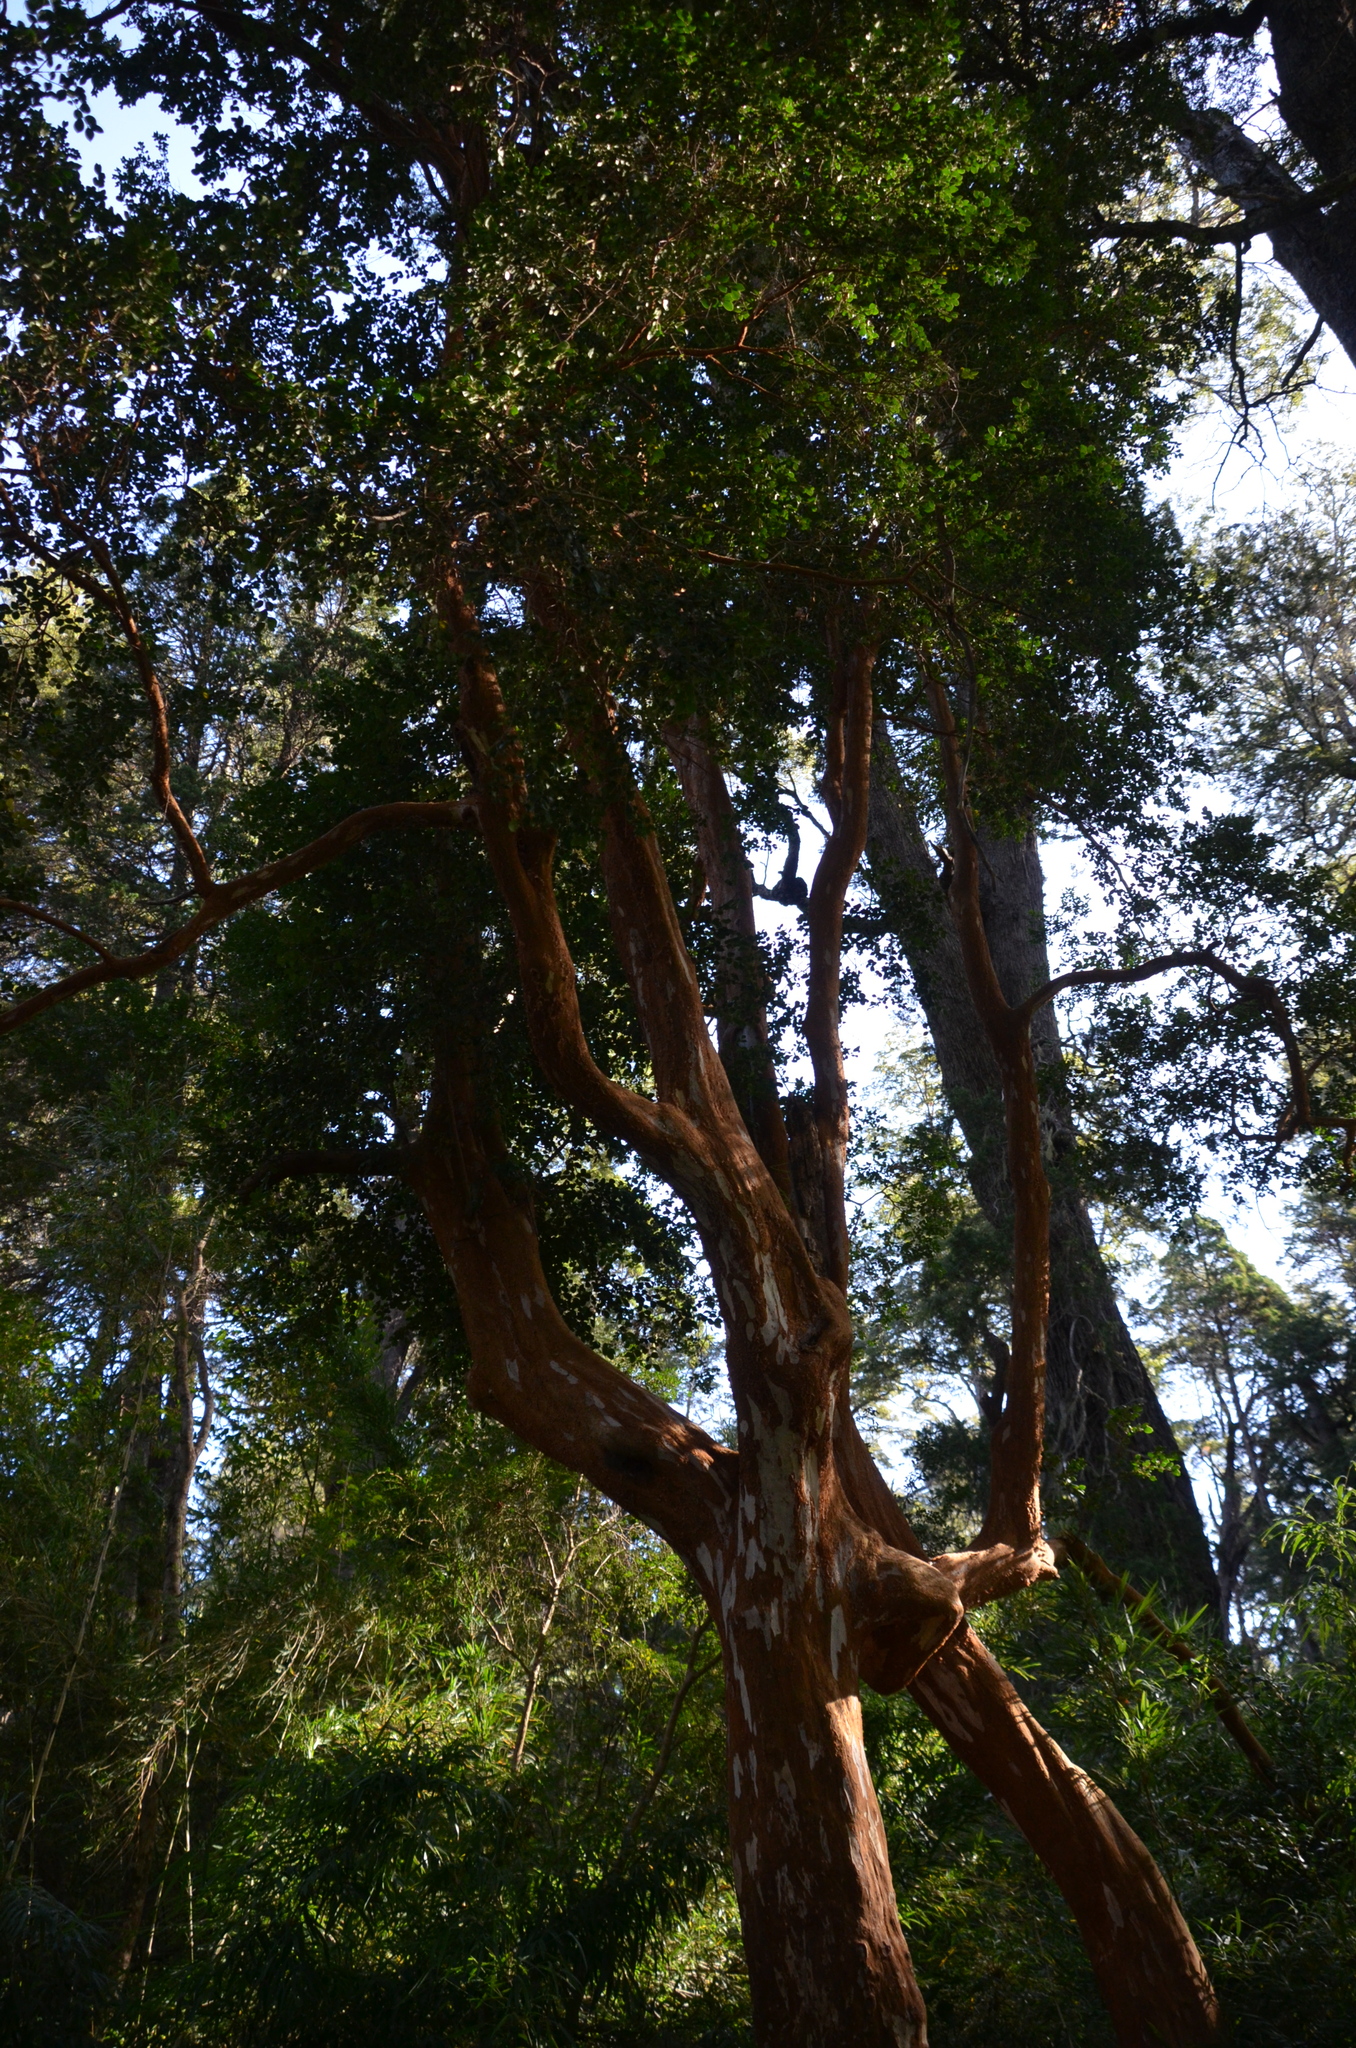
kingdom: Plantae
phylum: Tracheophyta
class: Magnoliopsida
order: Myrtales
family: Myrtaceae
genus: Luma
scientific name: Luma apiculata
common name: Chilean myrtle
